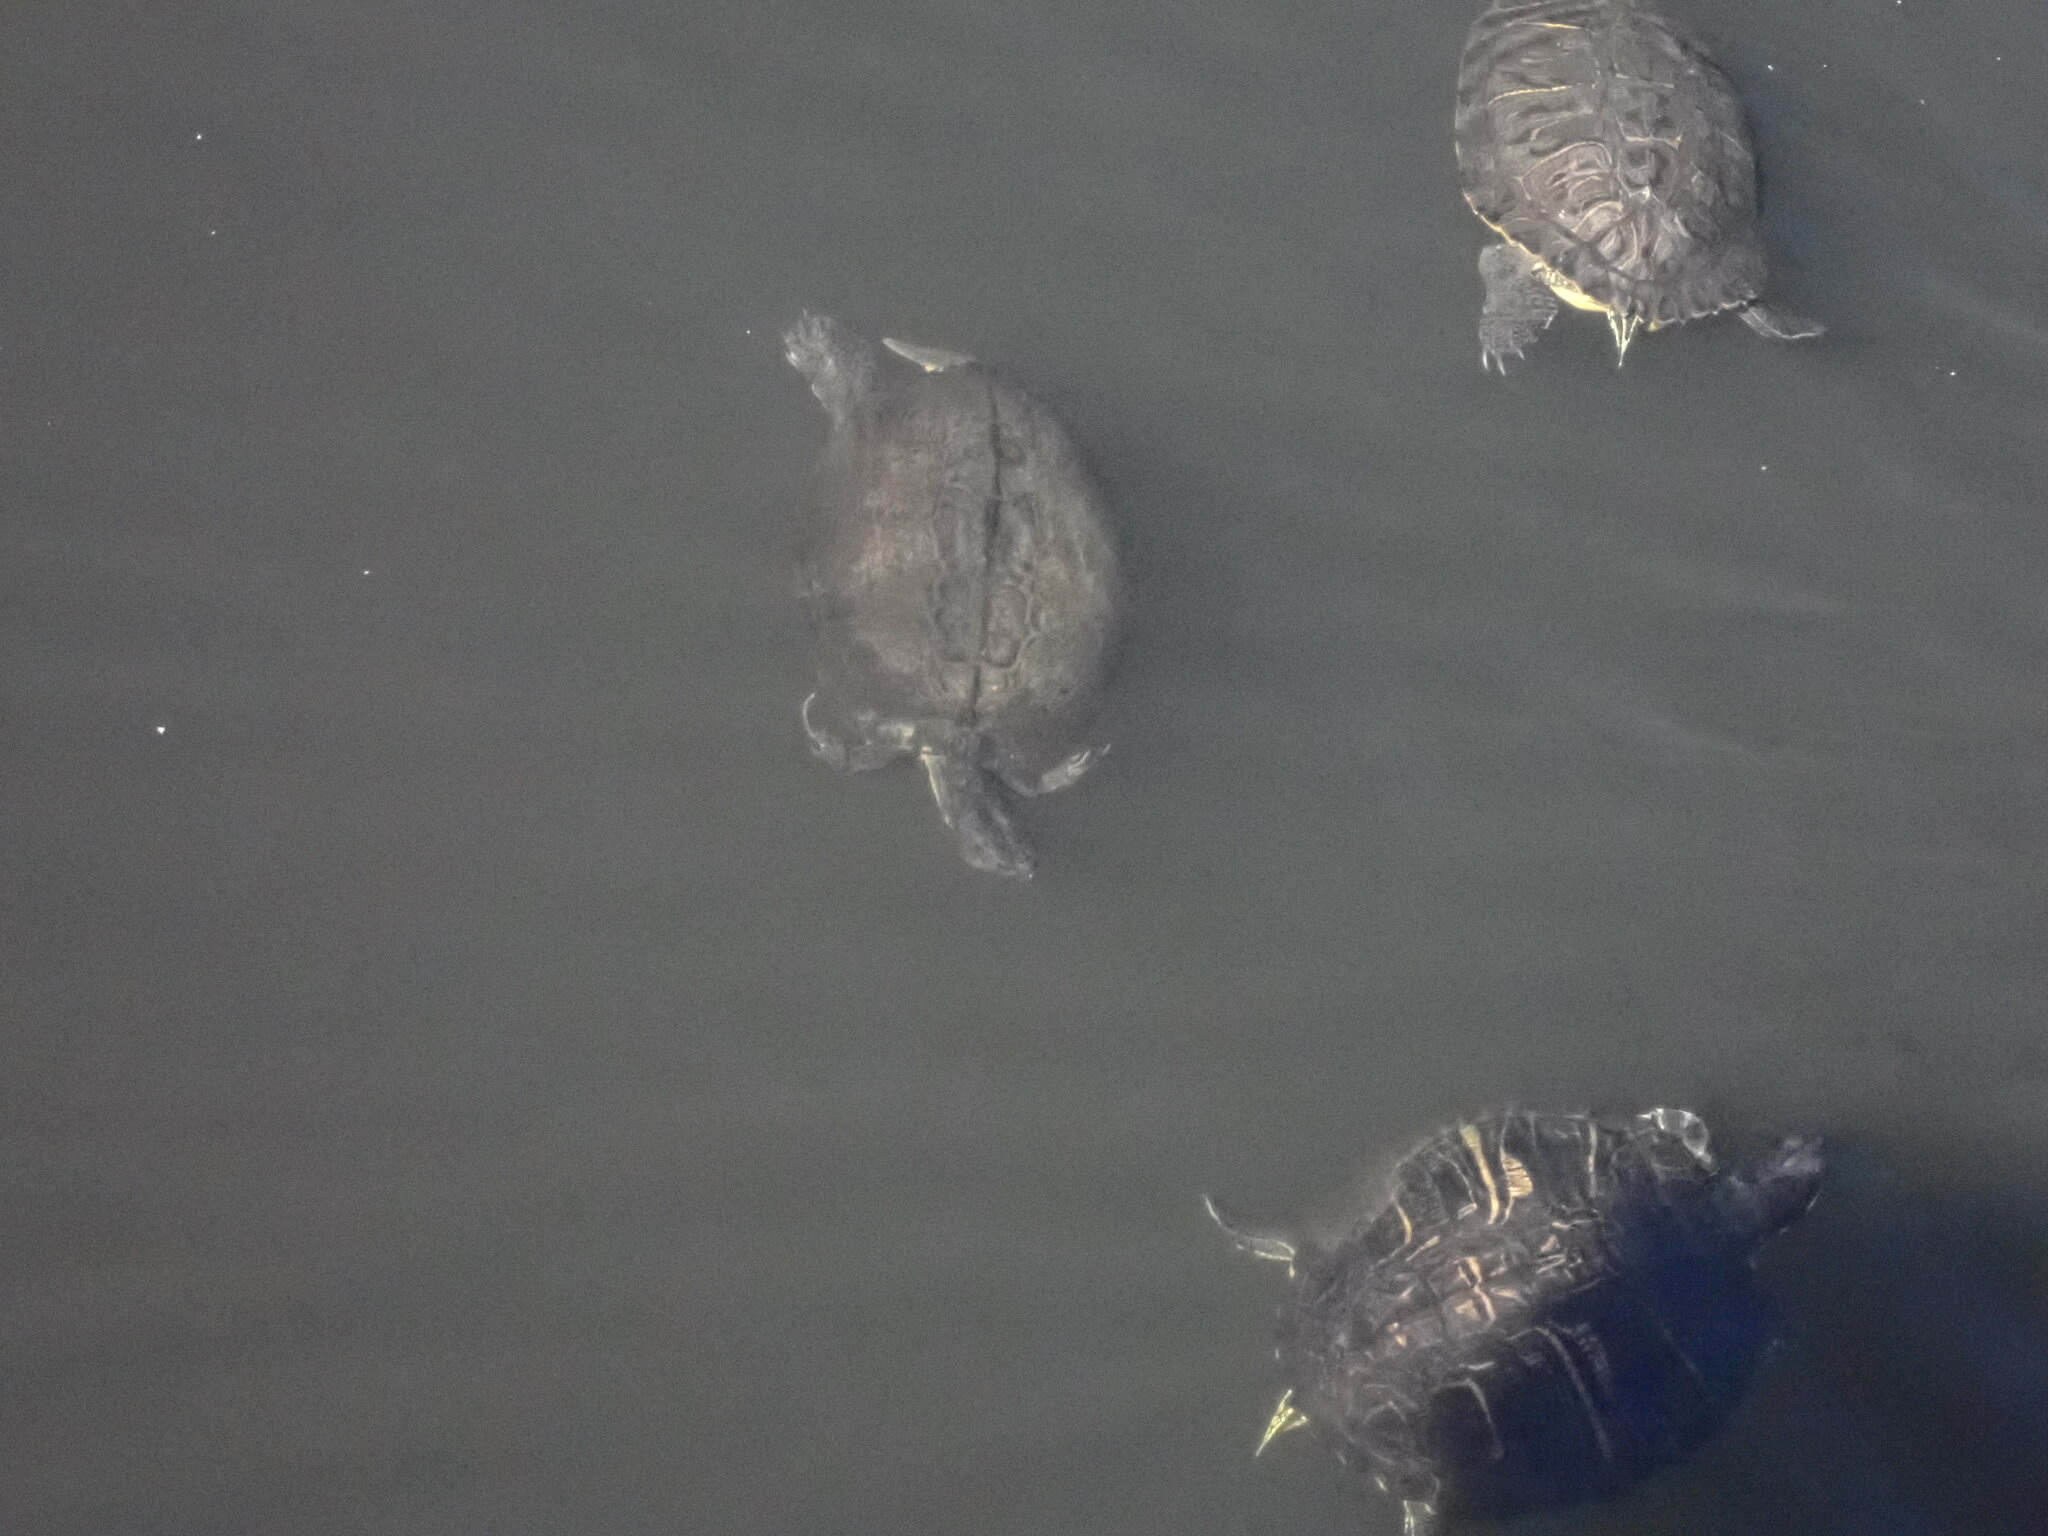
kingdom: Animalia
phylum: Chordata
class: Testudines
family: Emydidae
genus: Trachemys
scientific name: Trachemys scripta
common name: Slider
